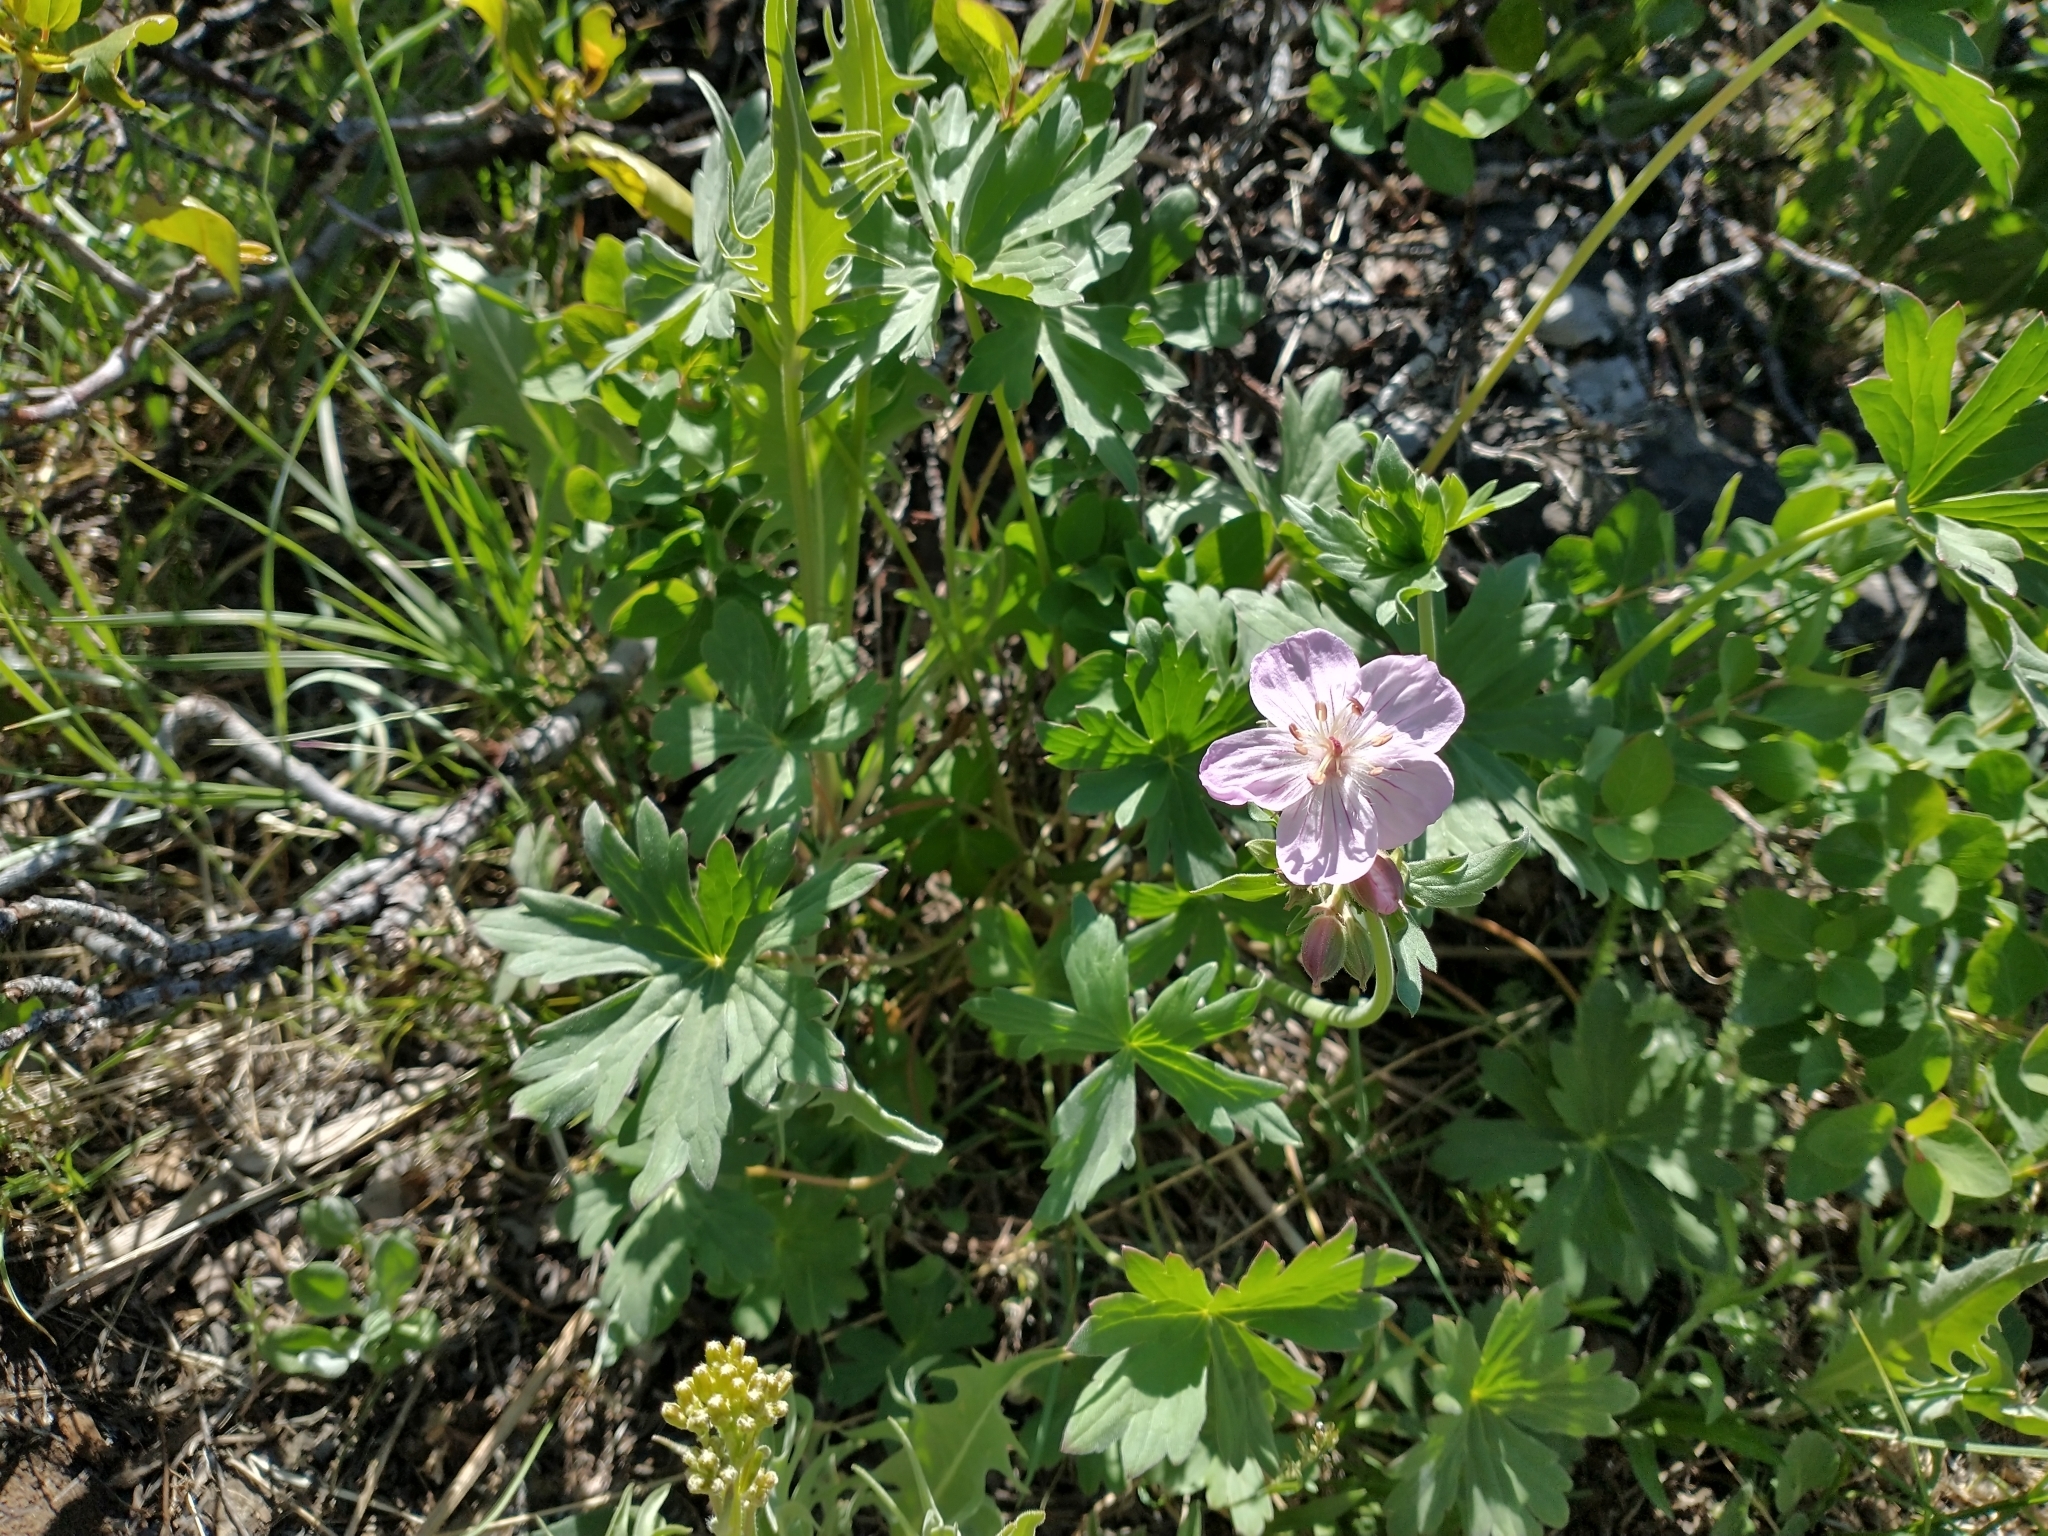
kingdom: Plantae
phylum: Tracheophyta
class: Magnoliopsida
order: Geraniales
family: Geraniaceae
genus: Geranium
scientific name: Geranium viscosissimum
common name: Purple geranium
